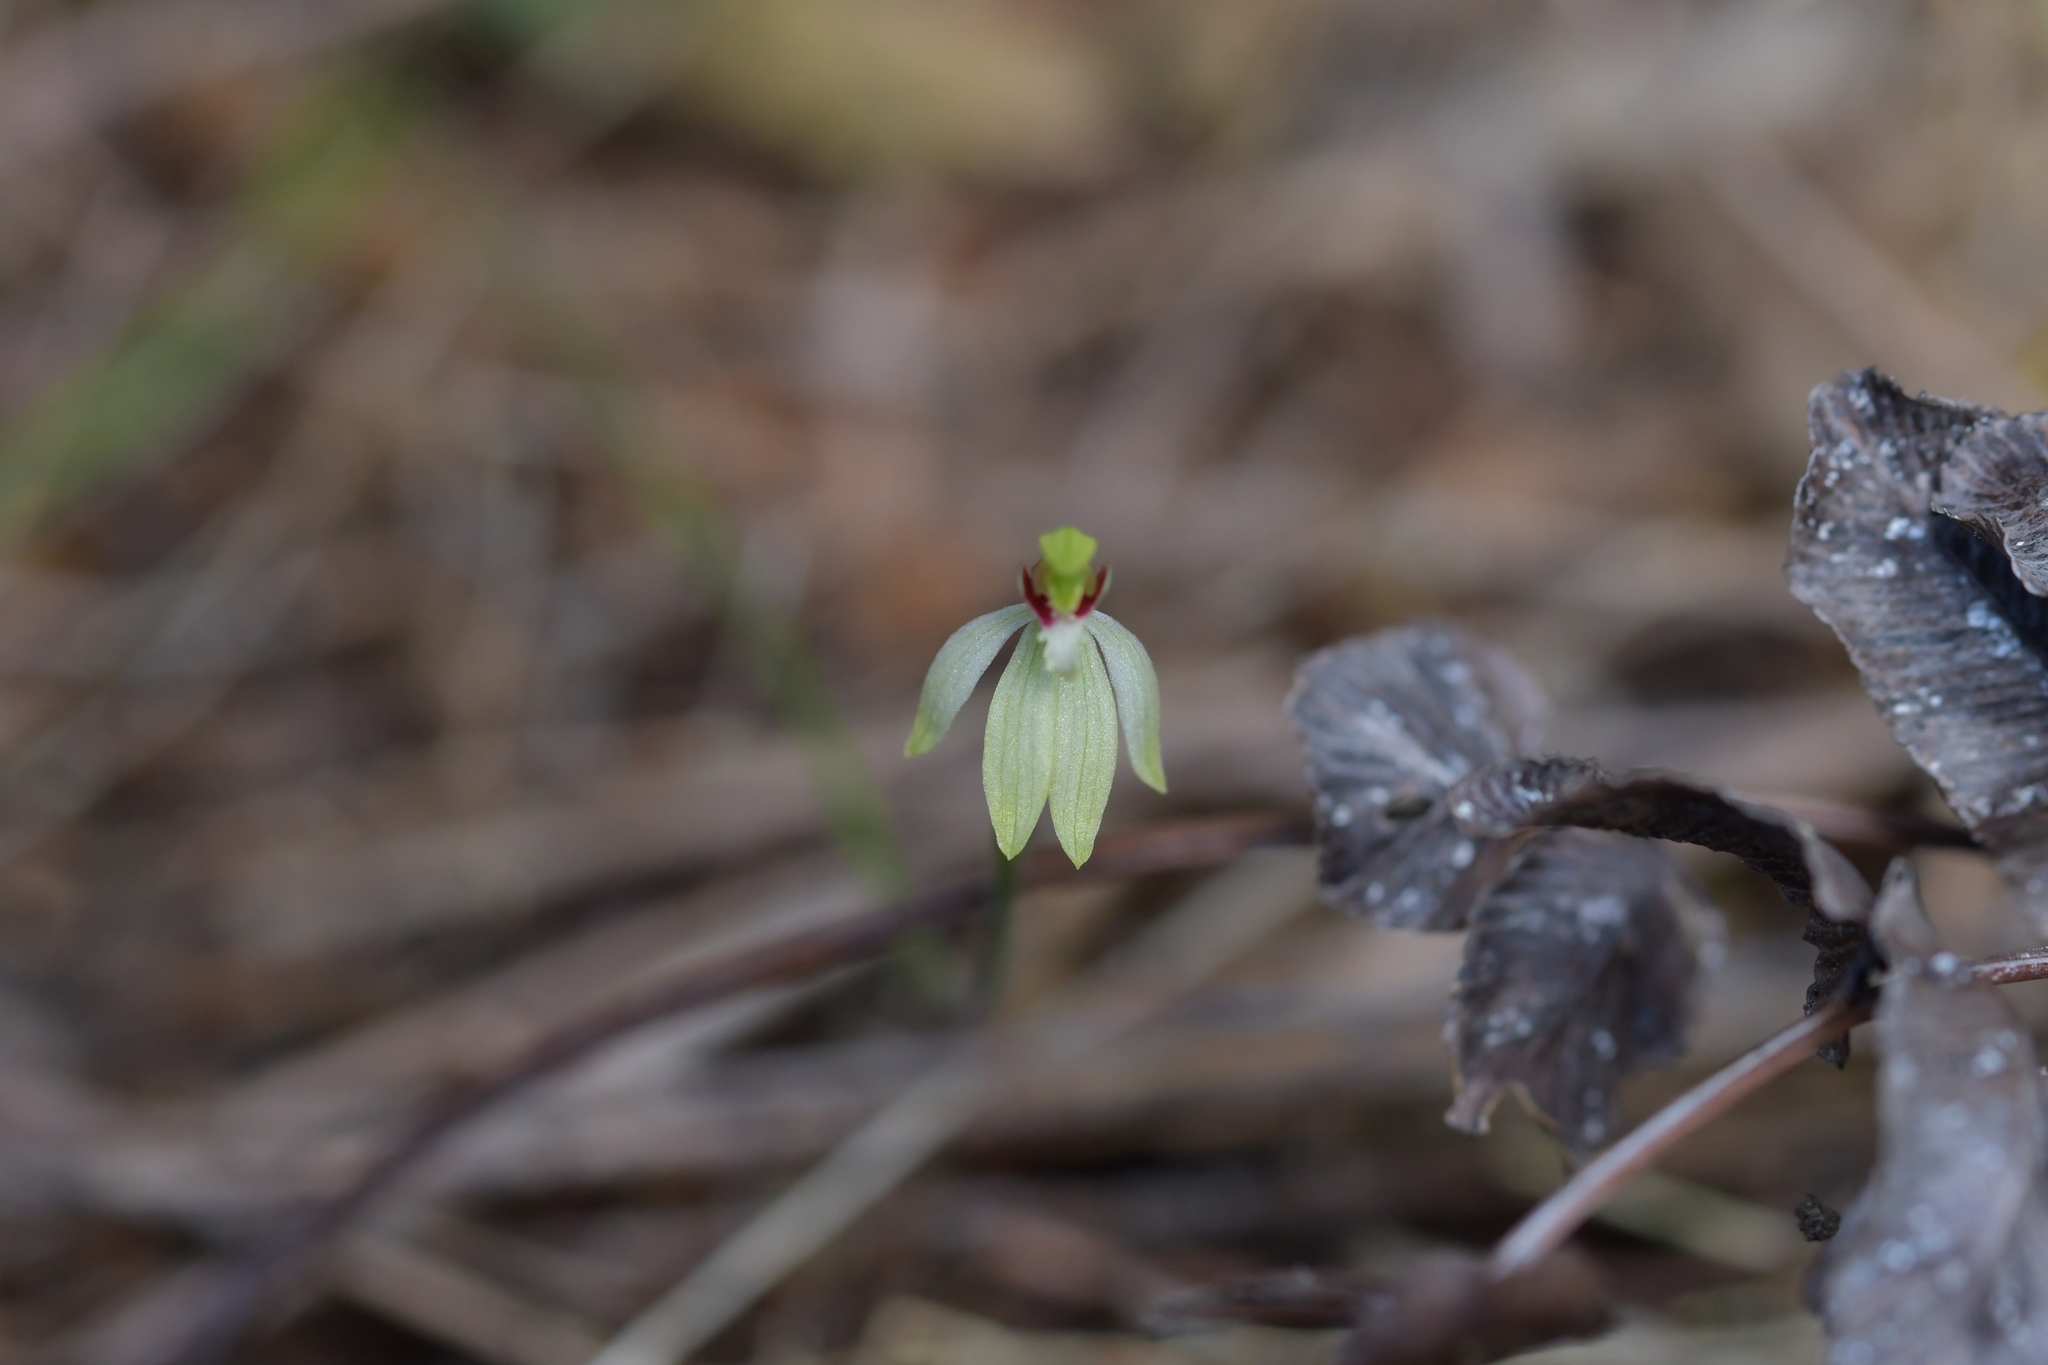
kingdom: Plantae
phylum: Tracheophyta
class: Liliopsida
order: Asparagales
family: Orchidaceae
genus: Caladenia
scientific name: Caladenia chlorostyla
